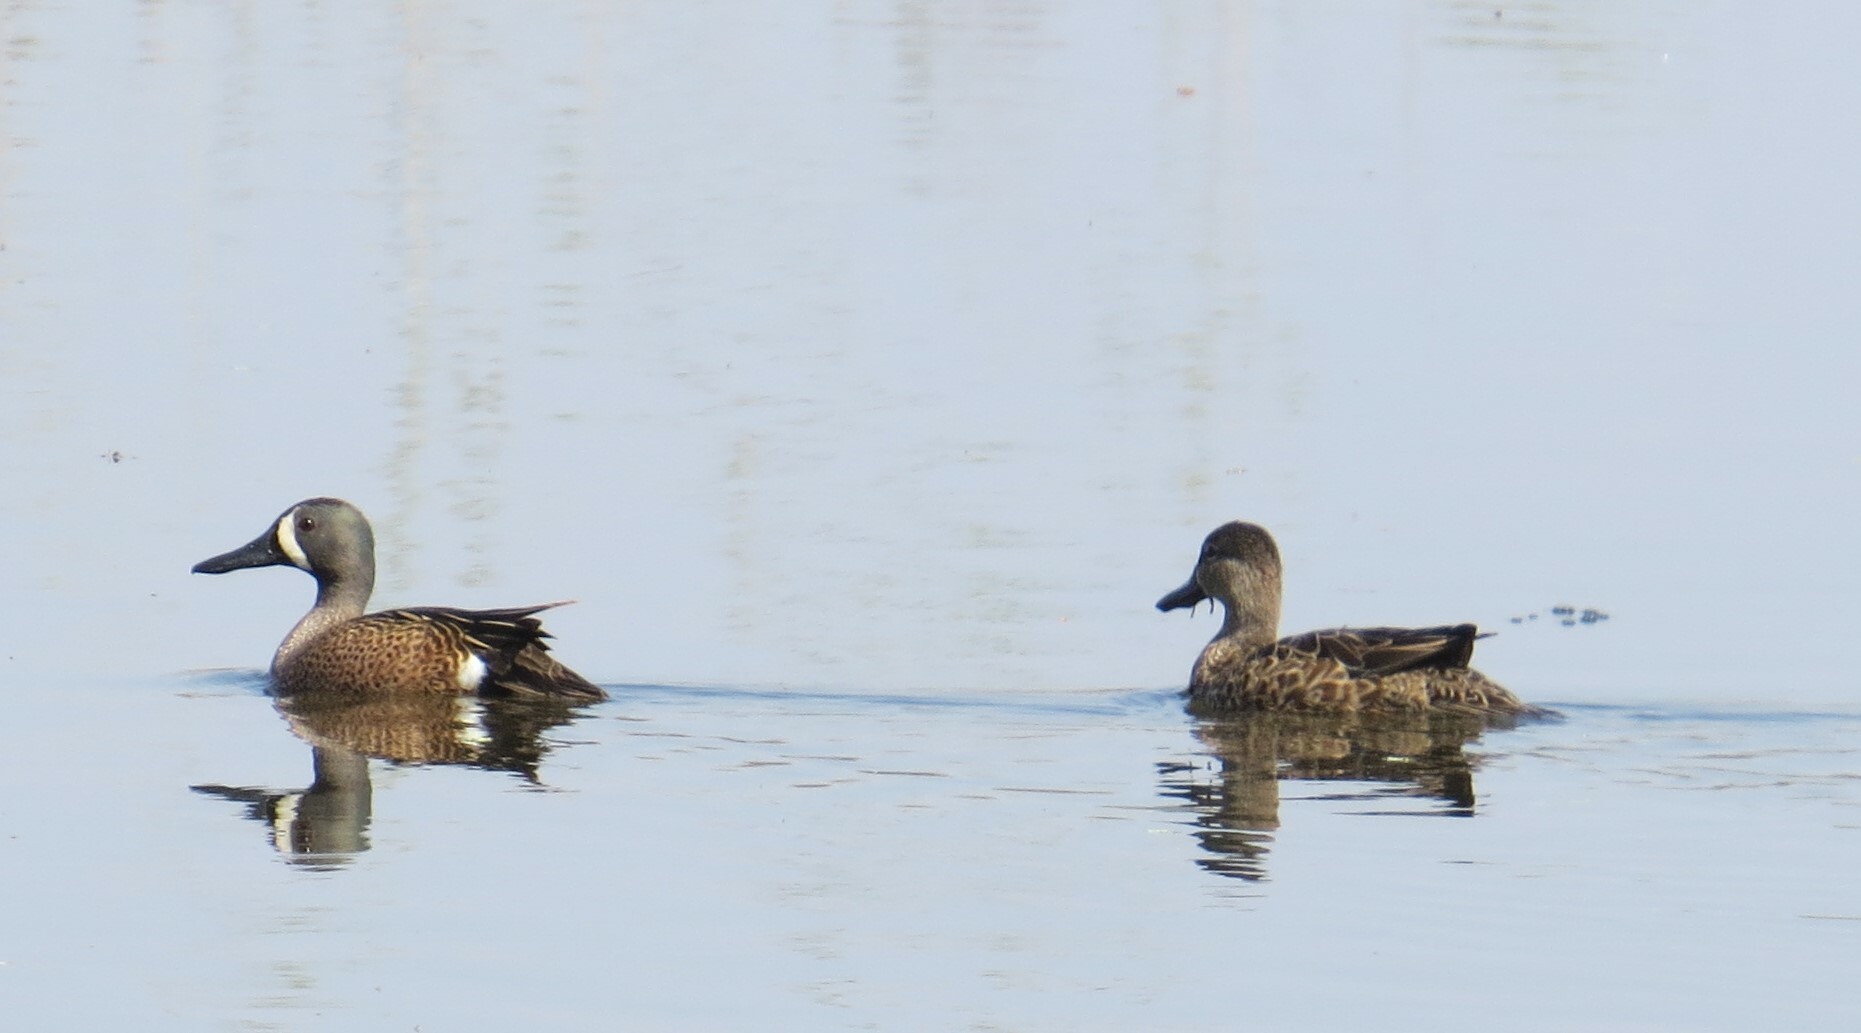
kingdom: Animalia
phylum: Chordata
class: Aves
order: Anseriformes
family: Anatidae
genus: Spatula
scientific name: Spatula discors
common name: Blue-winged teal
